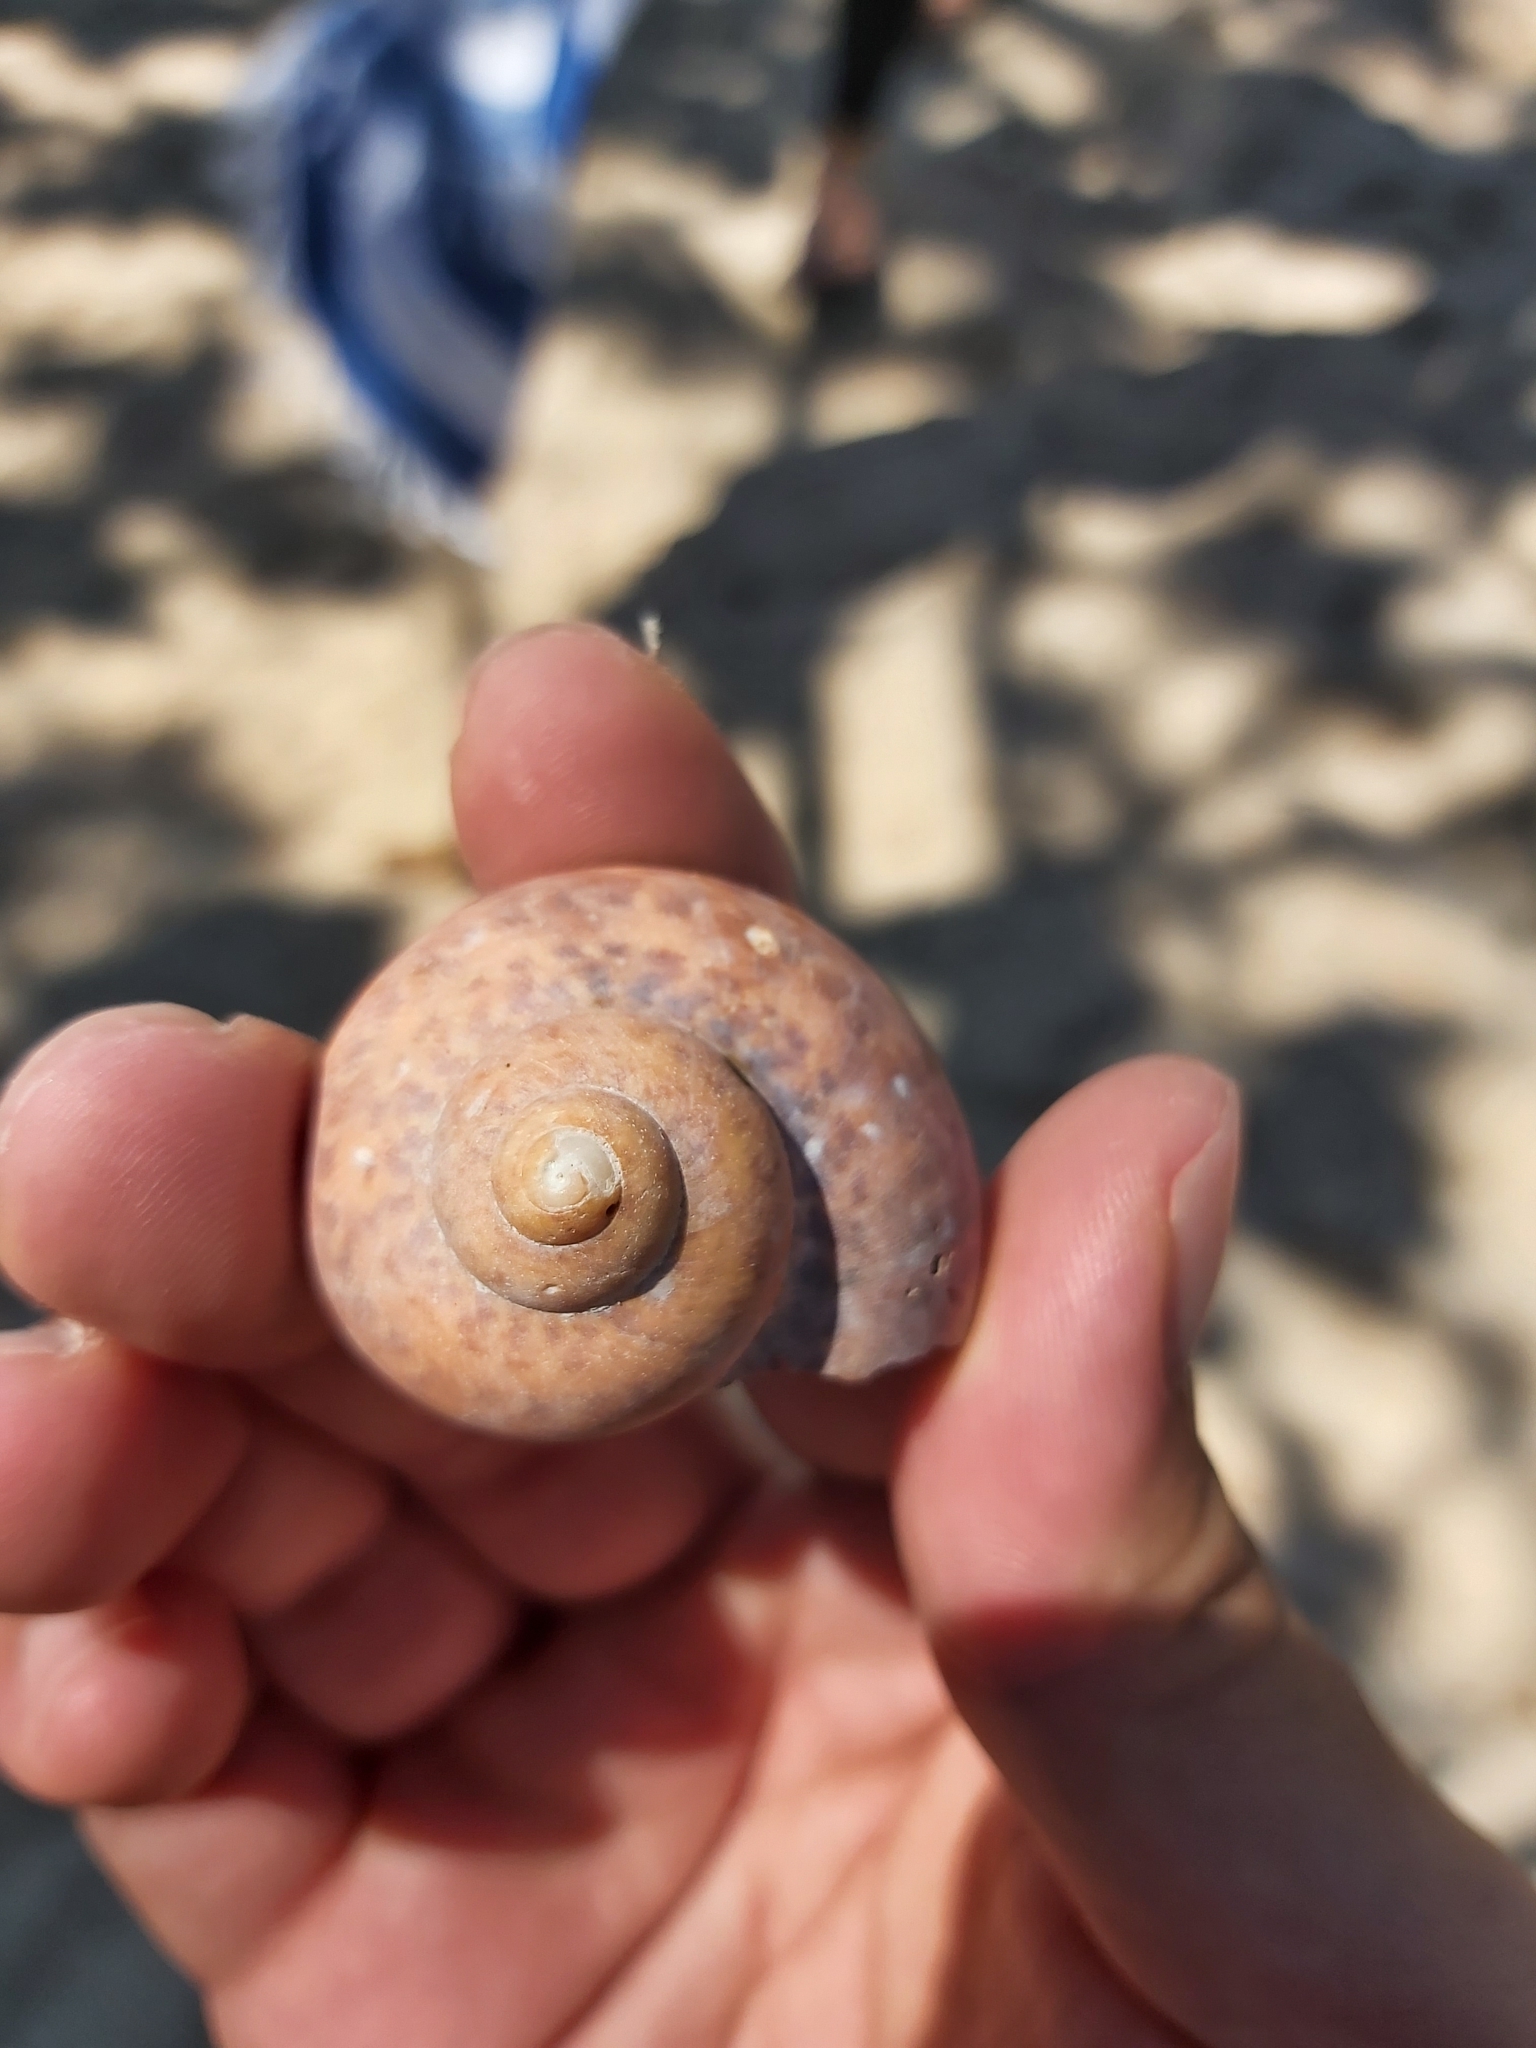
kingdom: Animalia
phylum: Mollusca
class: Gastropoda
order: Trochida
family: Turbinidae
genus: Turbo
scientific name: Turbo petholatus
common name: Cat's-eye shell
